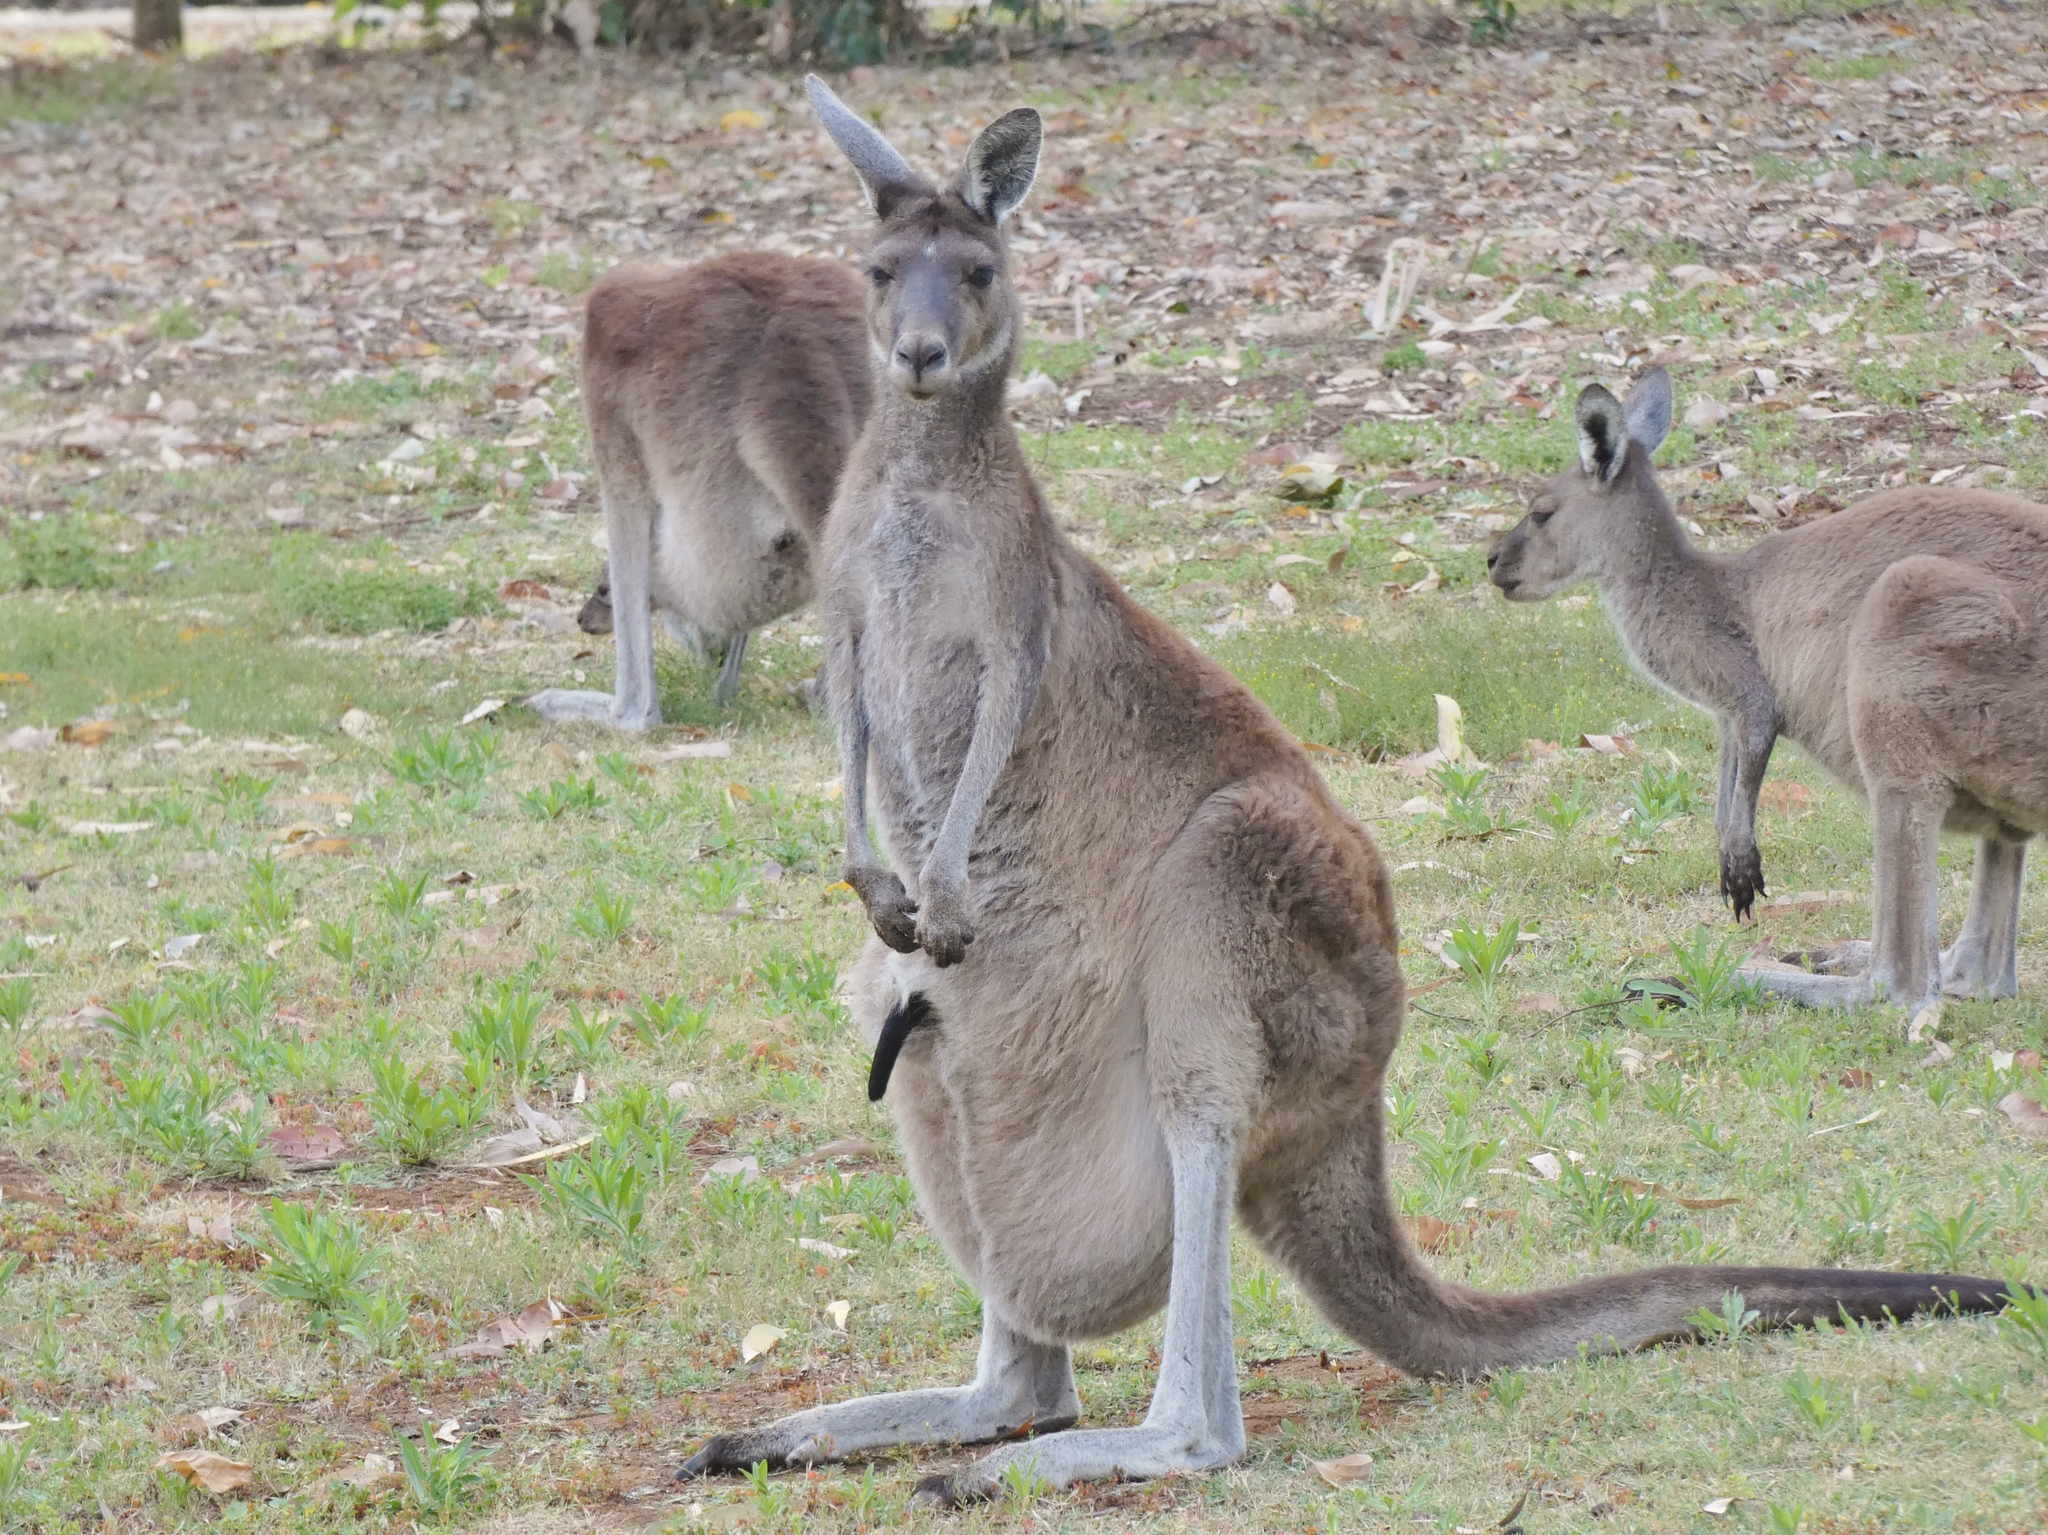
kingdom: Animalia
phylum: Chordata
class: Mammalia
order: Diprotodontia
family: Macropodidae
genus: Macropus
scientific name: Macropus fuliginosus
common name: Western grey kangaroo
